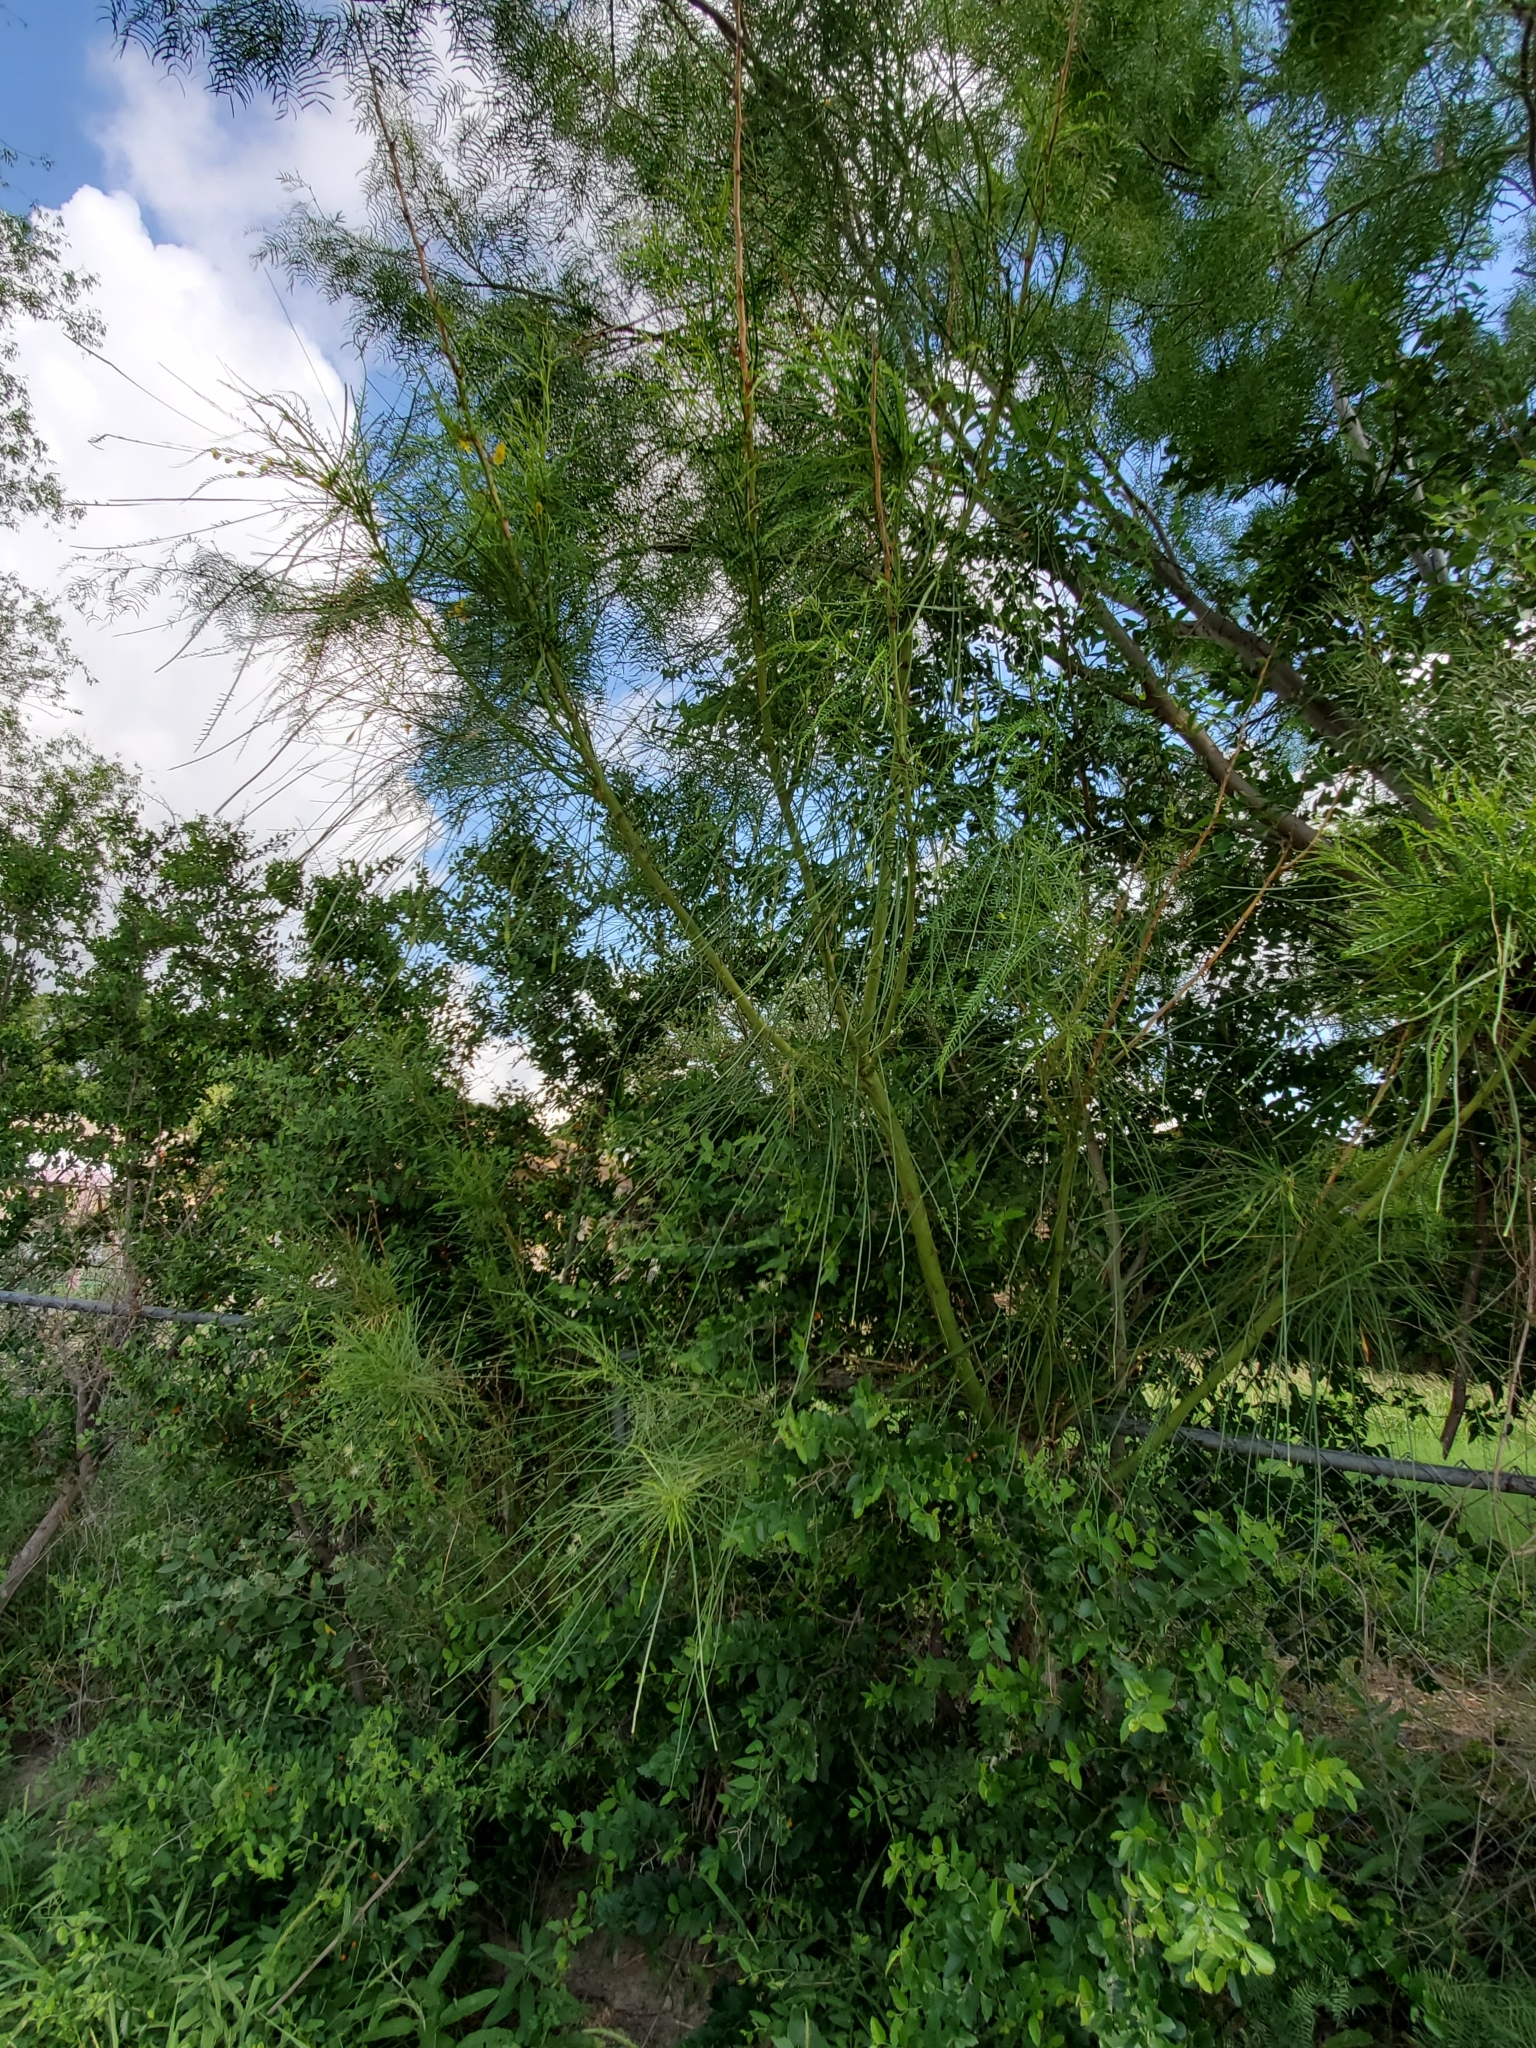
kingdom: Plantae
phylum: Tracheophyta
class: Magnoliopsida
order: Fabales
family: Fabaceae
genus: Parkinsonia
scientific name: Parkinsonia aculeata
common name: Jerusalem thorn
